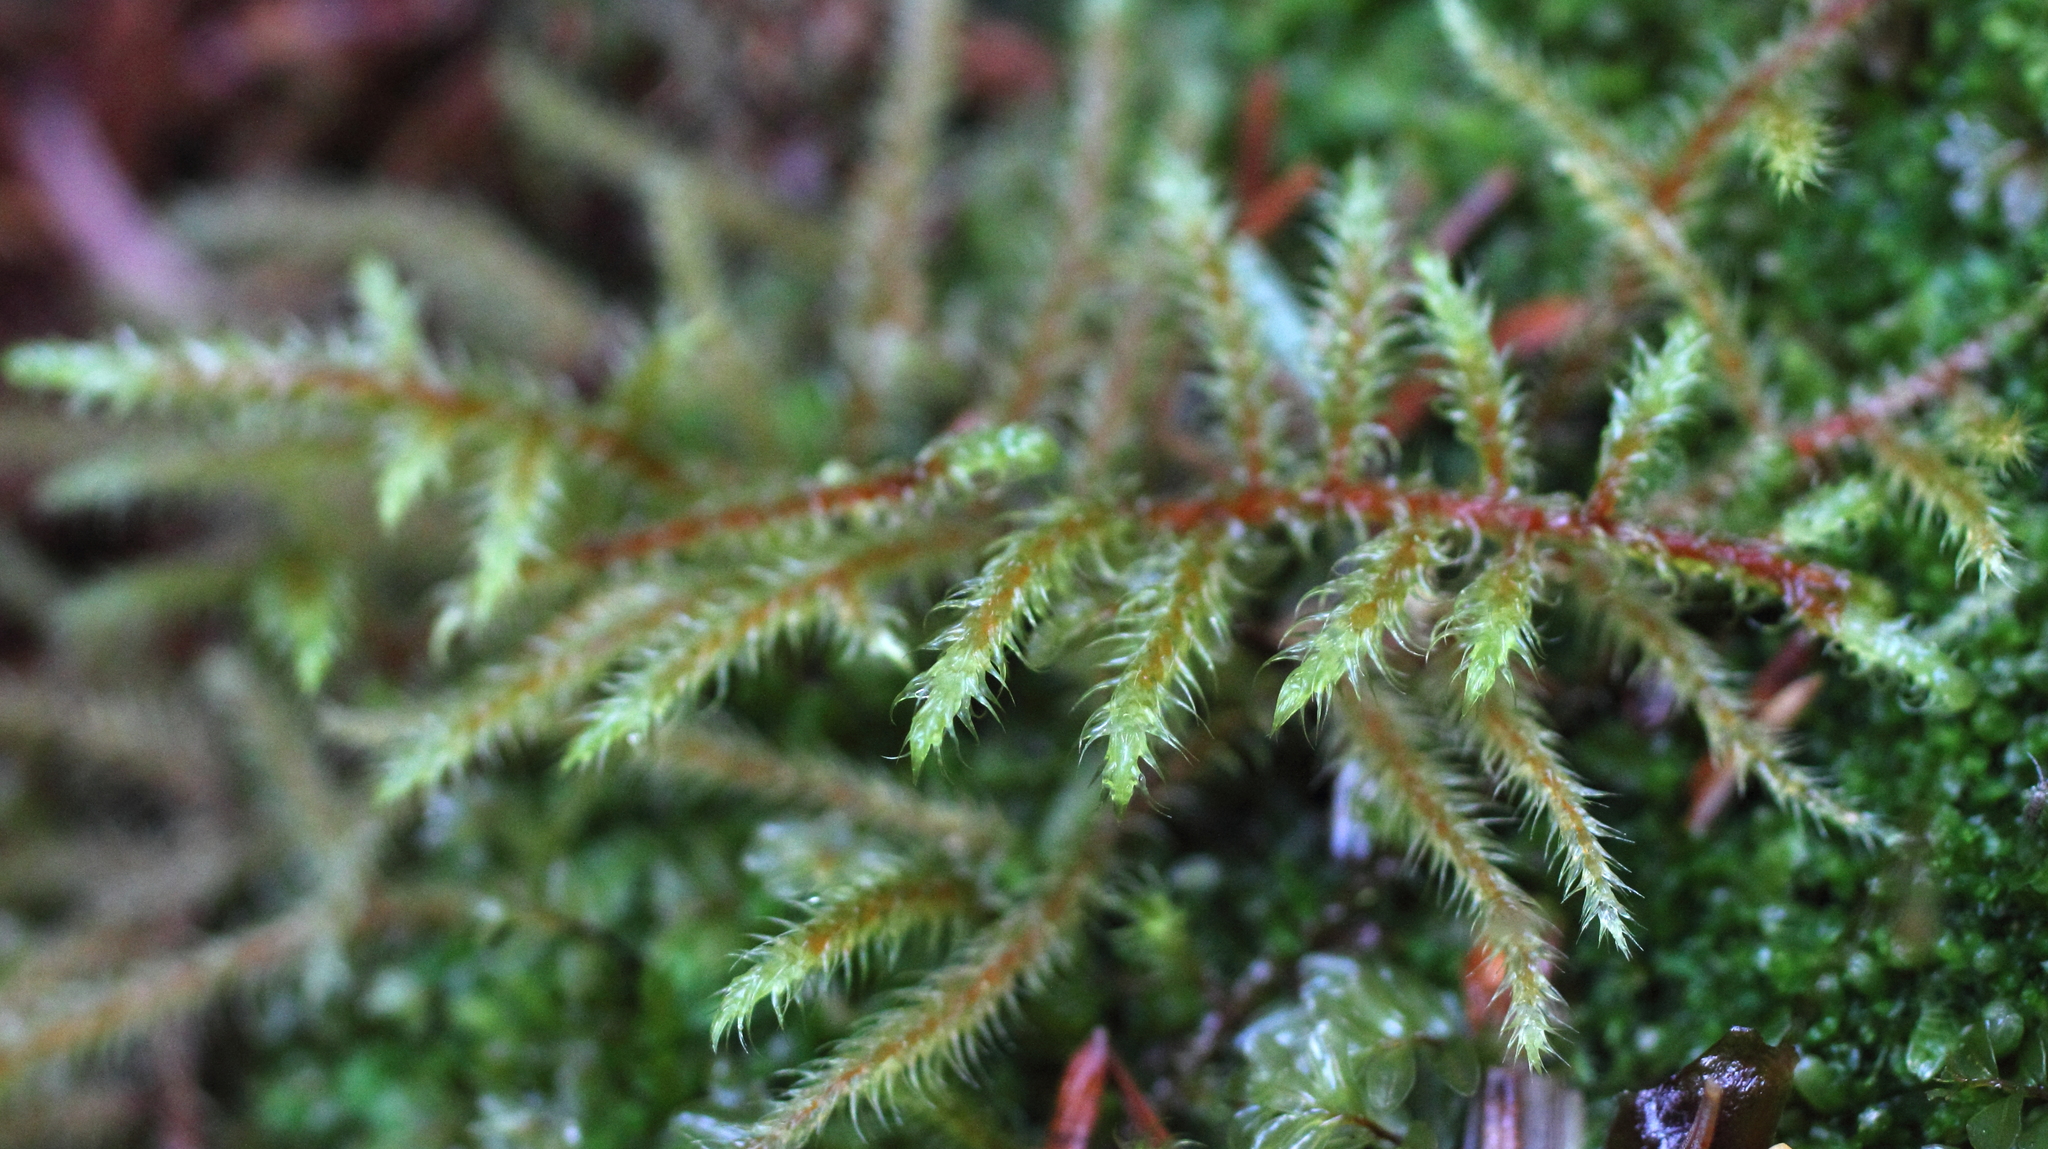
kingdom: Plantae
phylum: Bryophyta
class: Bryopsida
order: Hypnales
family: Hylocomiaceae
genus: Rhytidiadelphus
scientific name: Rhytidiadelphus loreus
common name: Lanky moss
